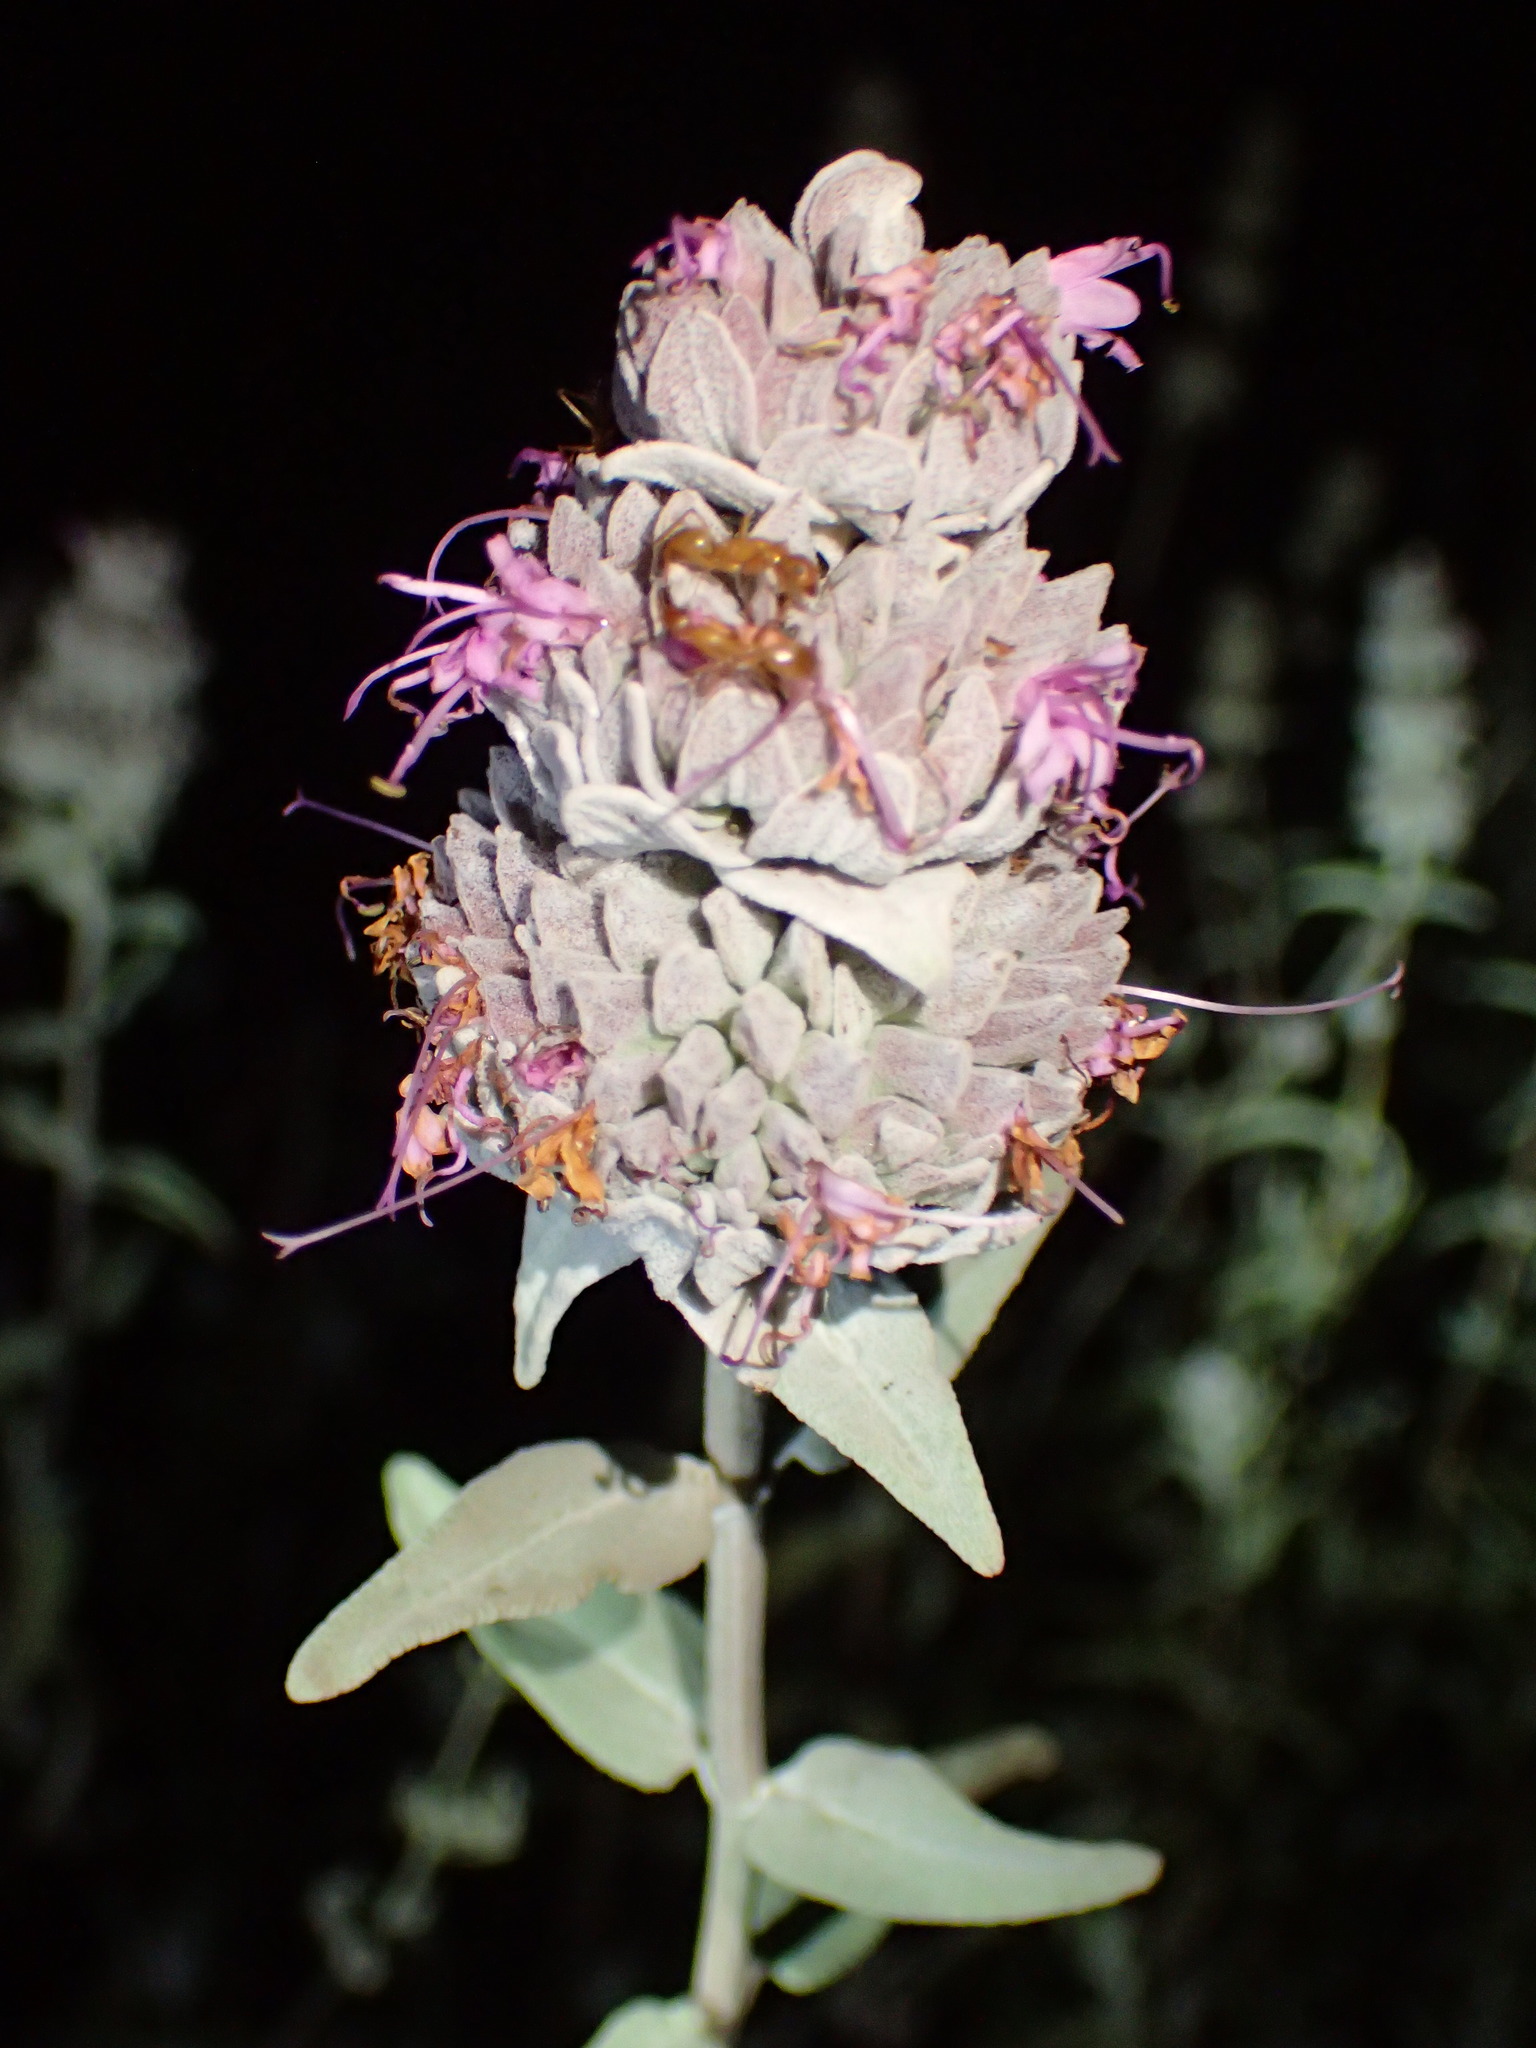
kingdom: Plantae
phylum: Tracheophyta
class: Magnoliopsida
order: Lamiales
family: Lamiaceae
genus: Salvia
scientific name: Salvia leucophylla
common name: Purple sage
